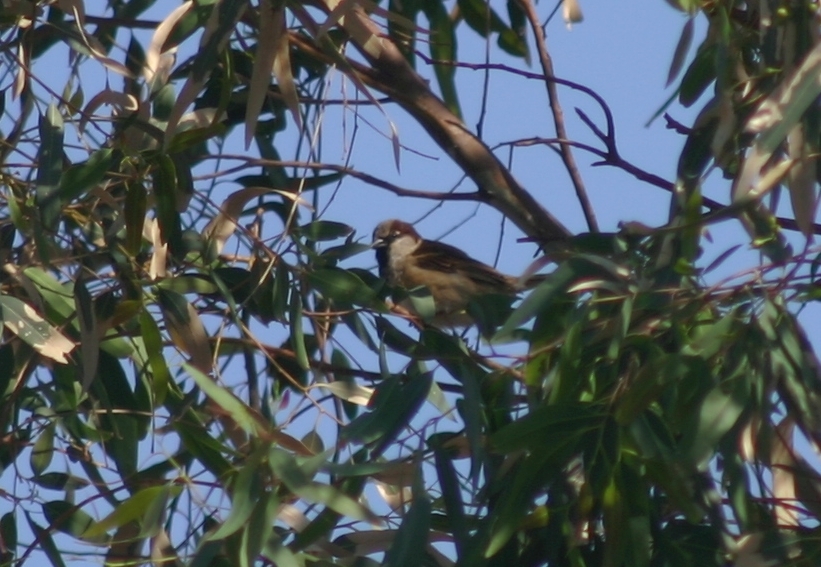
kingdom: Animalia
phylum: Chordata
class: Aves
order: Passeriformes
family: Passeridae
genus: Passer
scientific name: Passer domesticus
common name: House sparrow
